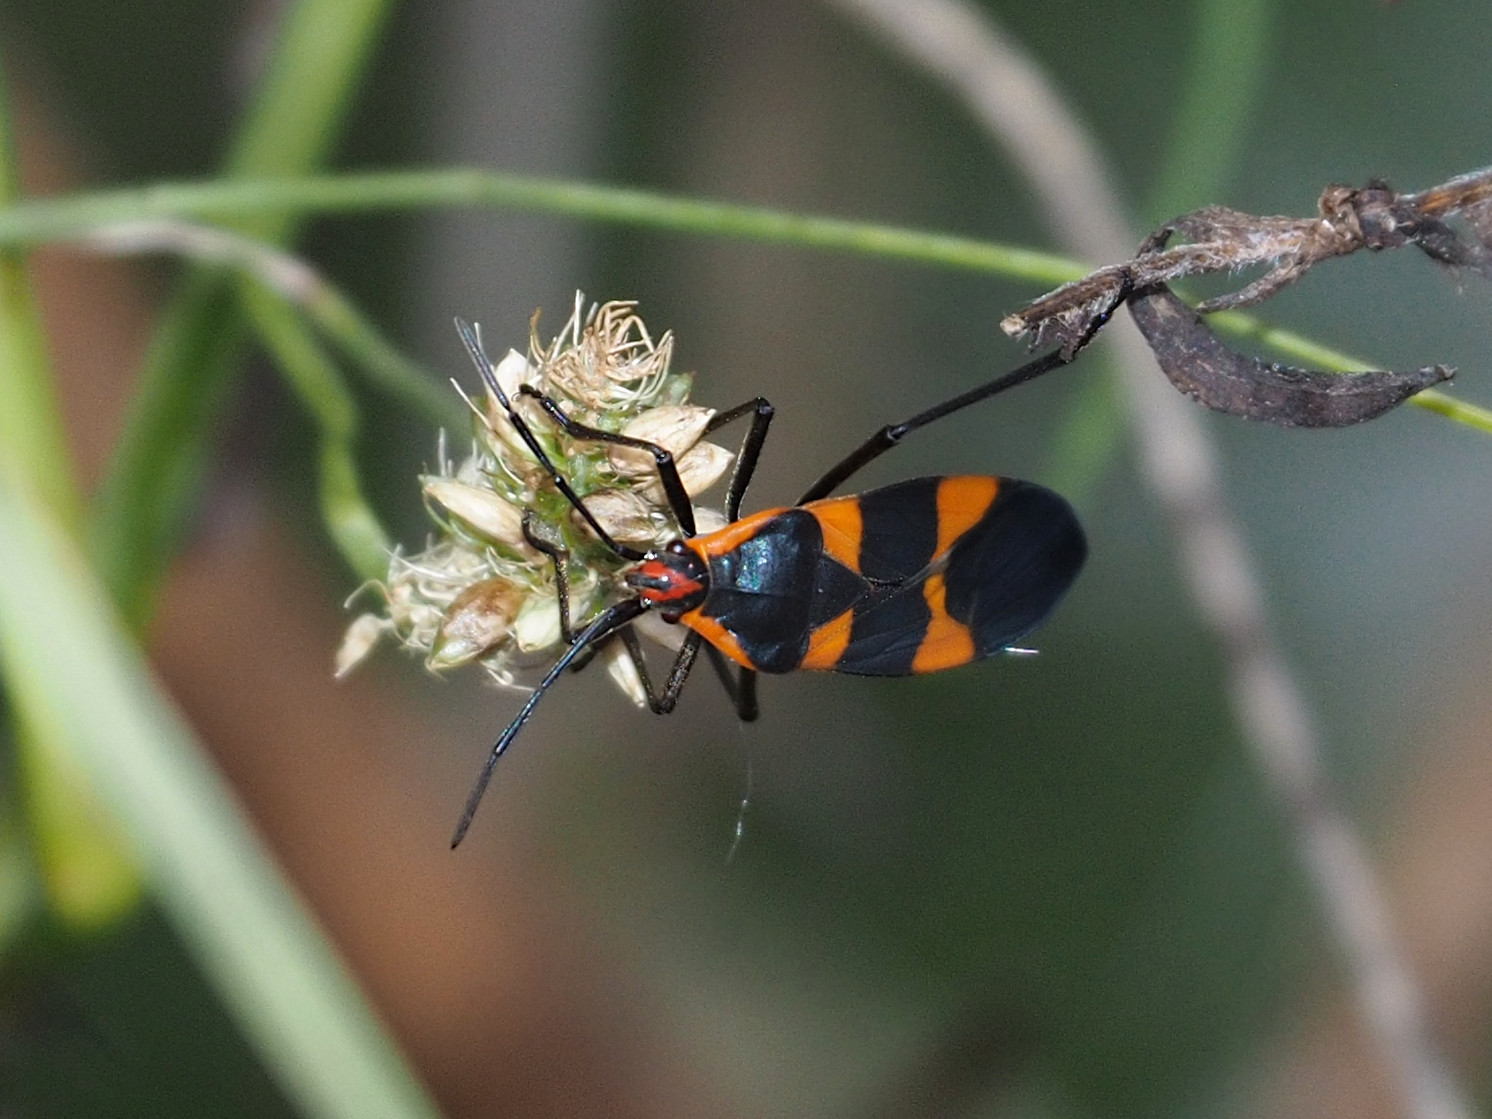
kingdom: Animalia
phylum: Arthropoda
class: Insecta
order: Hemiptera
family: Lygaeidae
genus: Oncopeltus
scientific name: Oncopeltus fasciatus
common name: Large milkweed bug
